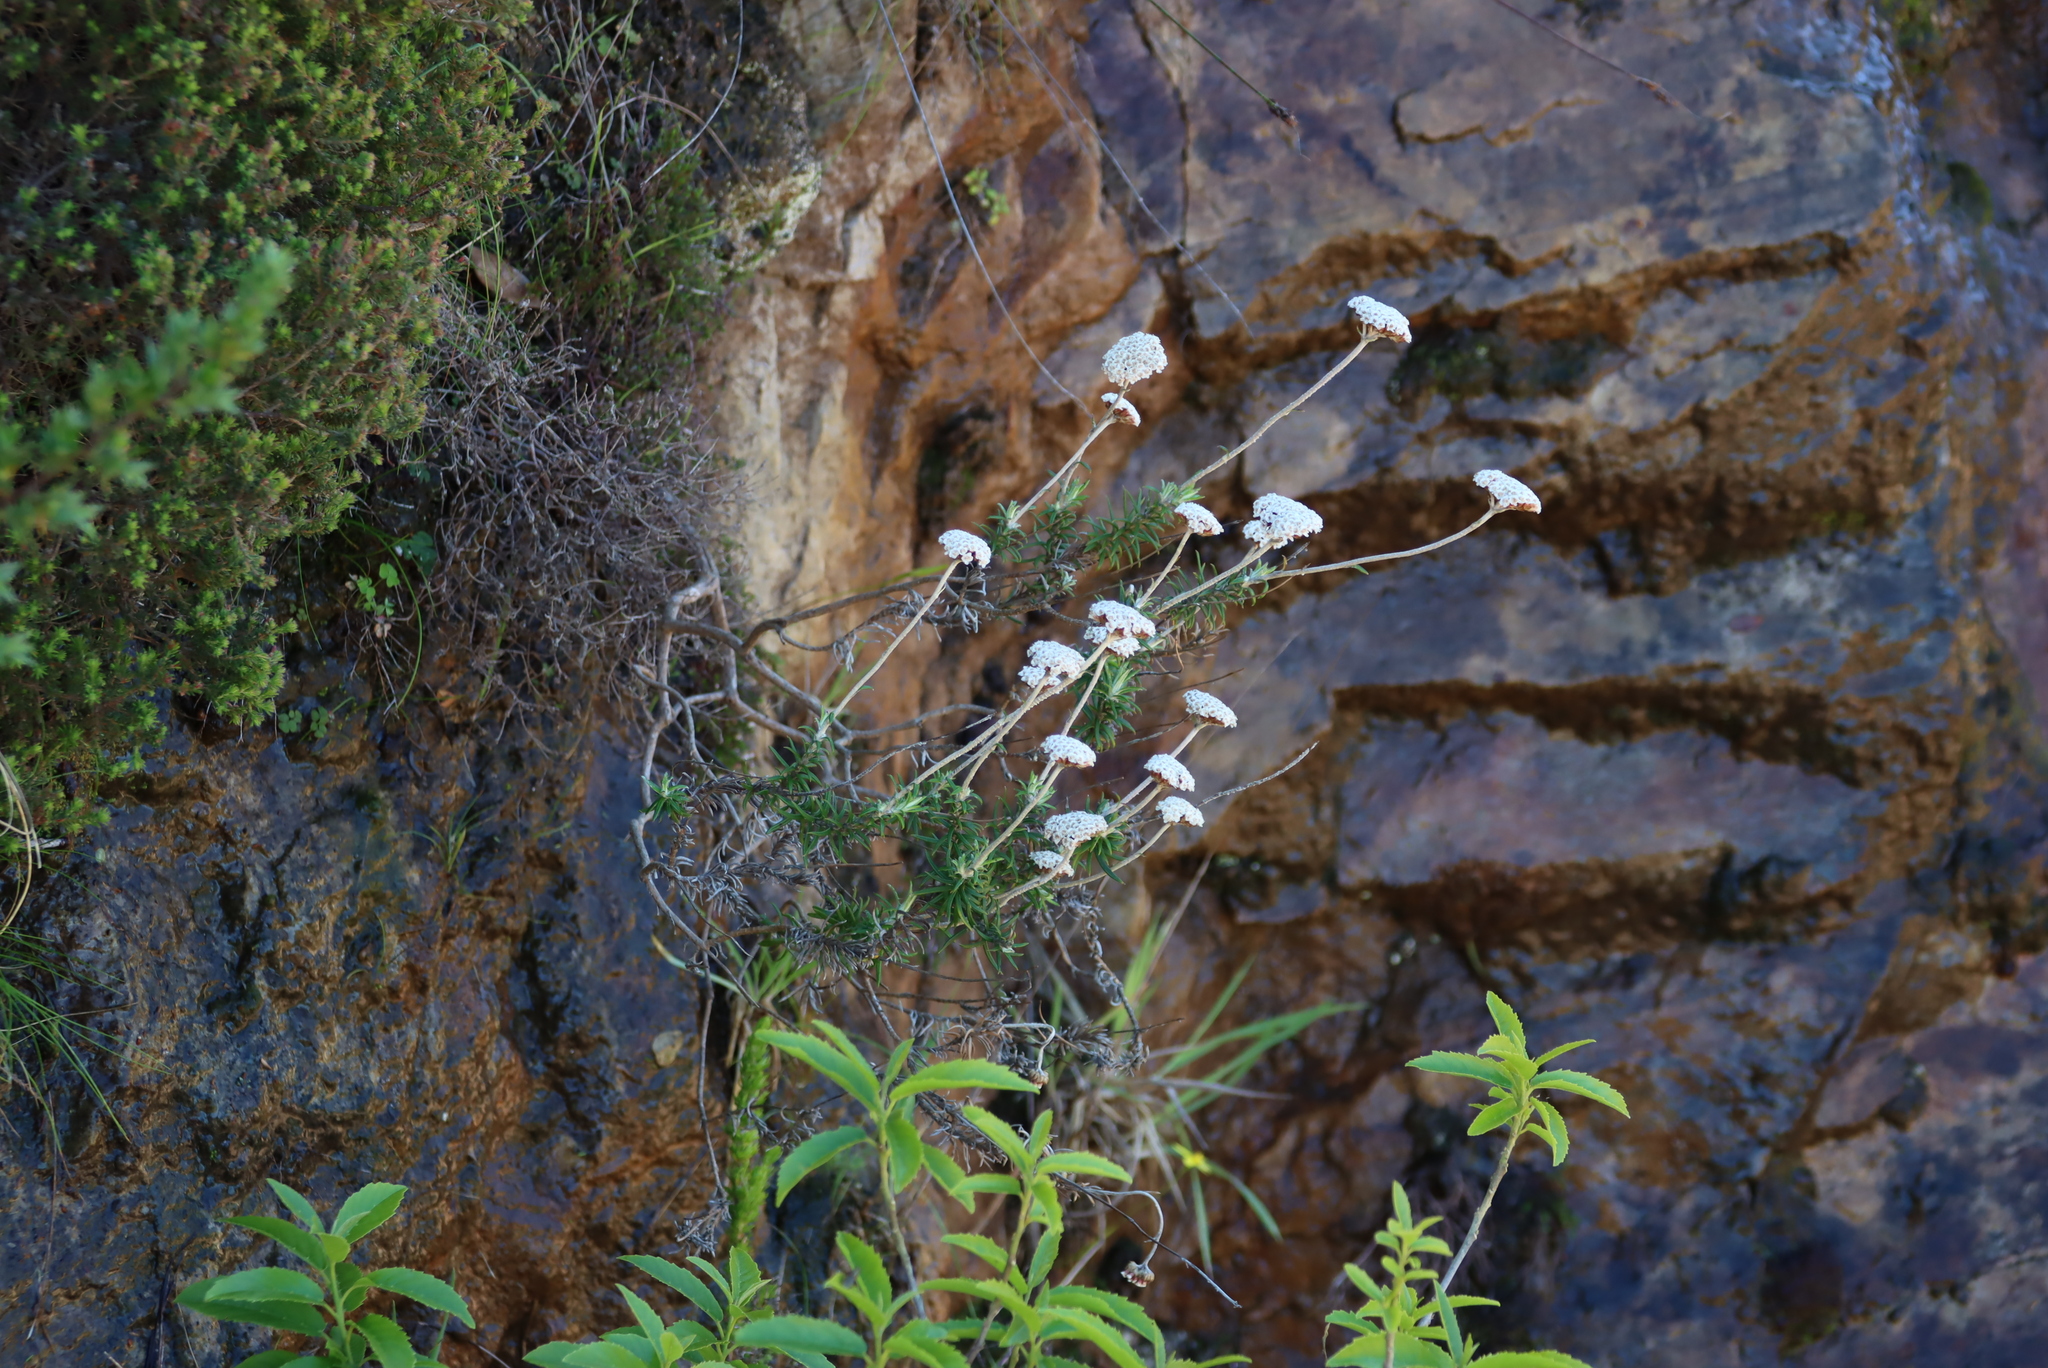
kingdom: Plantae
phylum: Tracheophyta
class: Magnoliopsida
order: Asterales
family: Asteraceae
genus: Anaxeton
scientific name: Anaxeton arborescens
